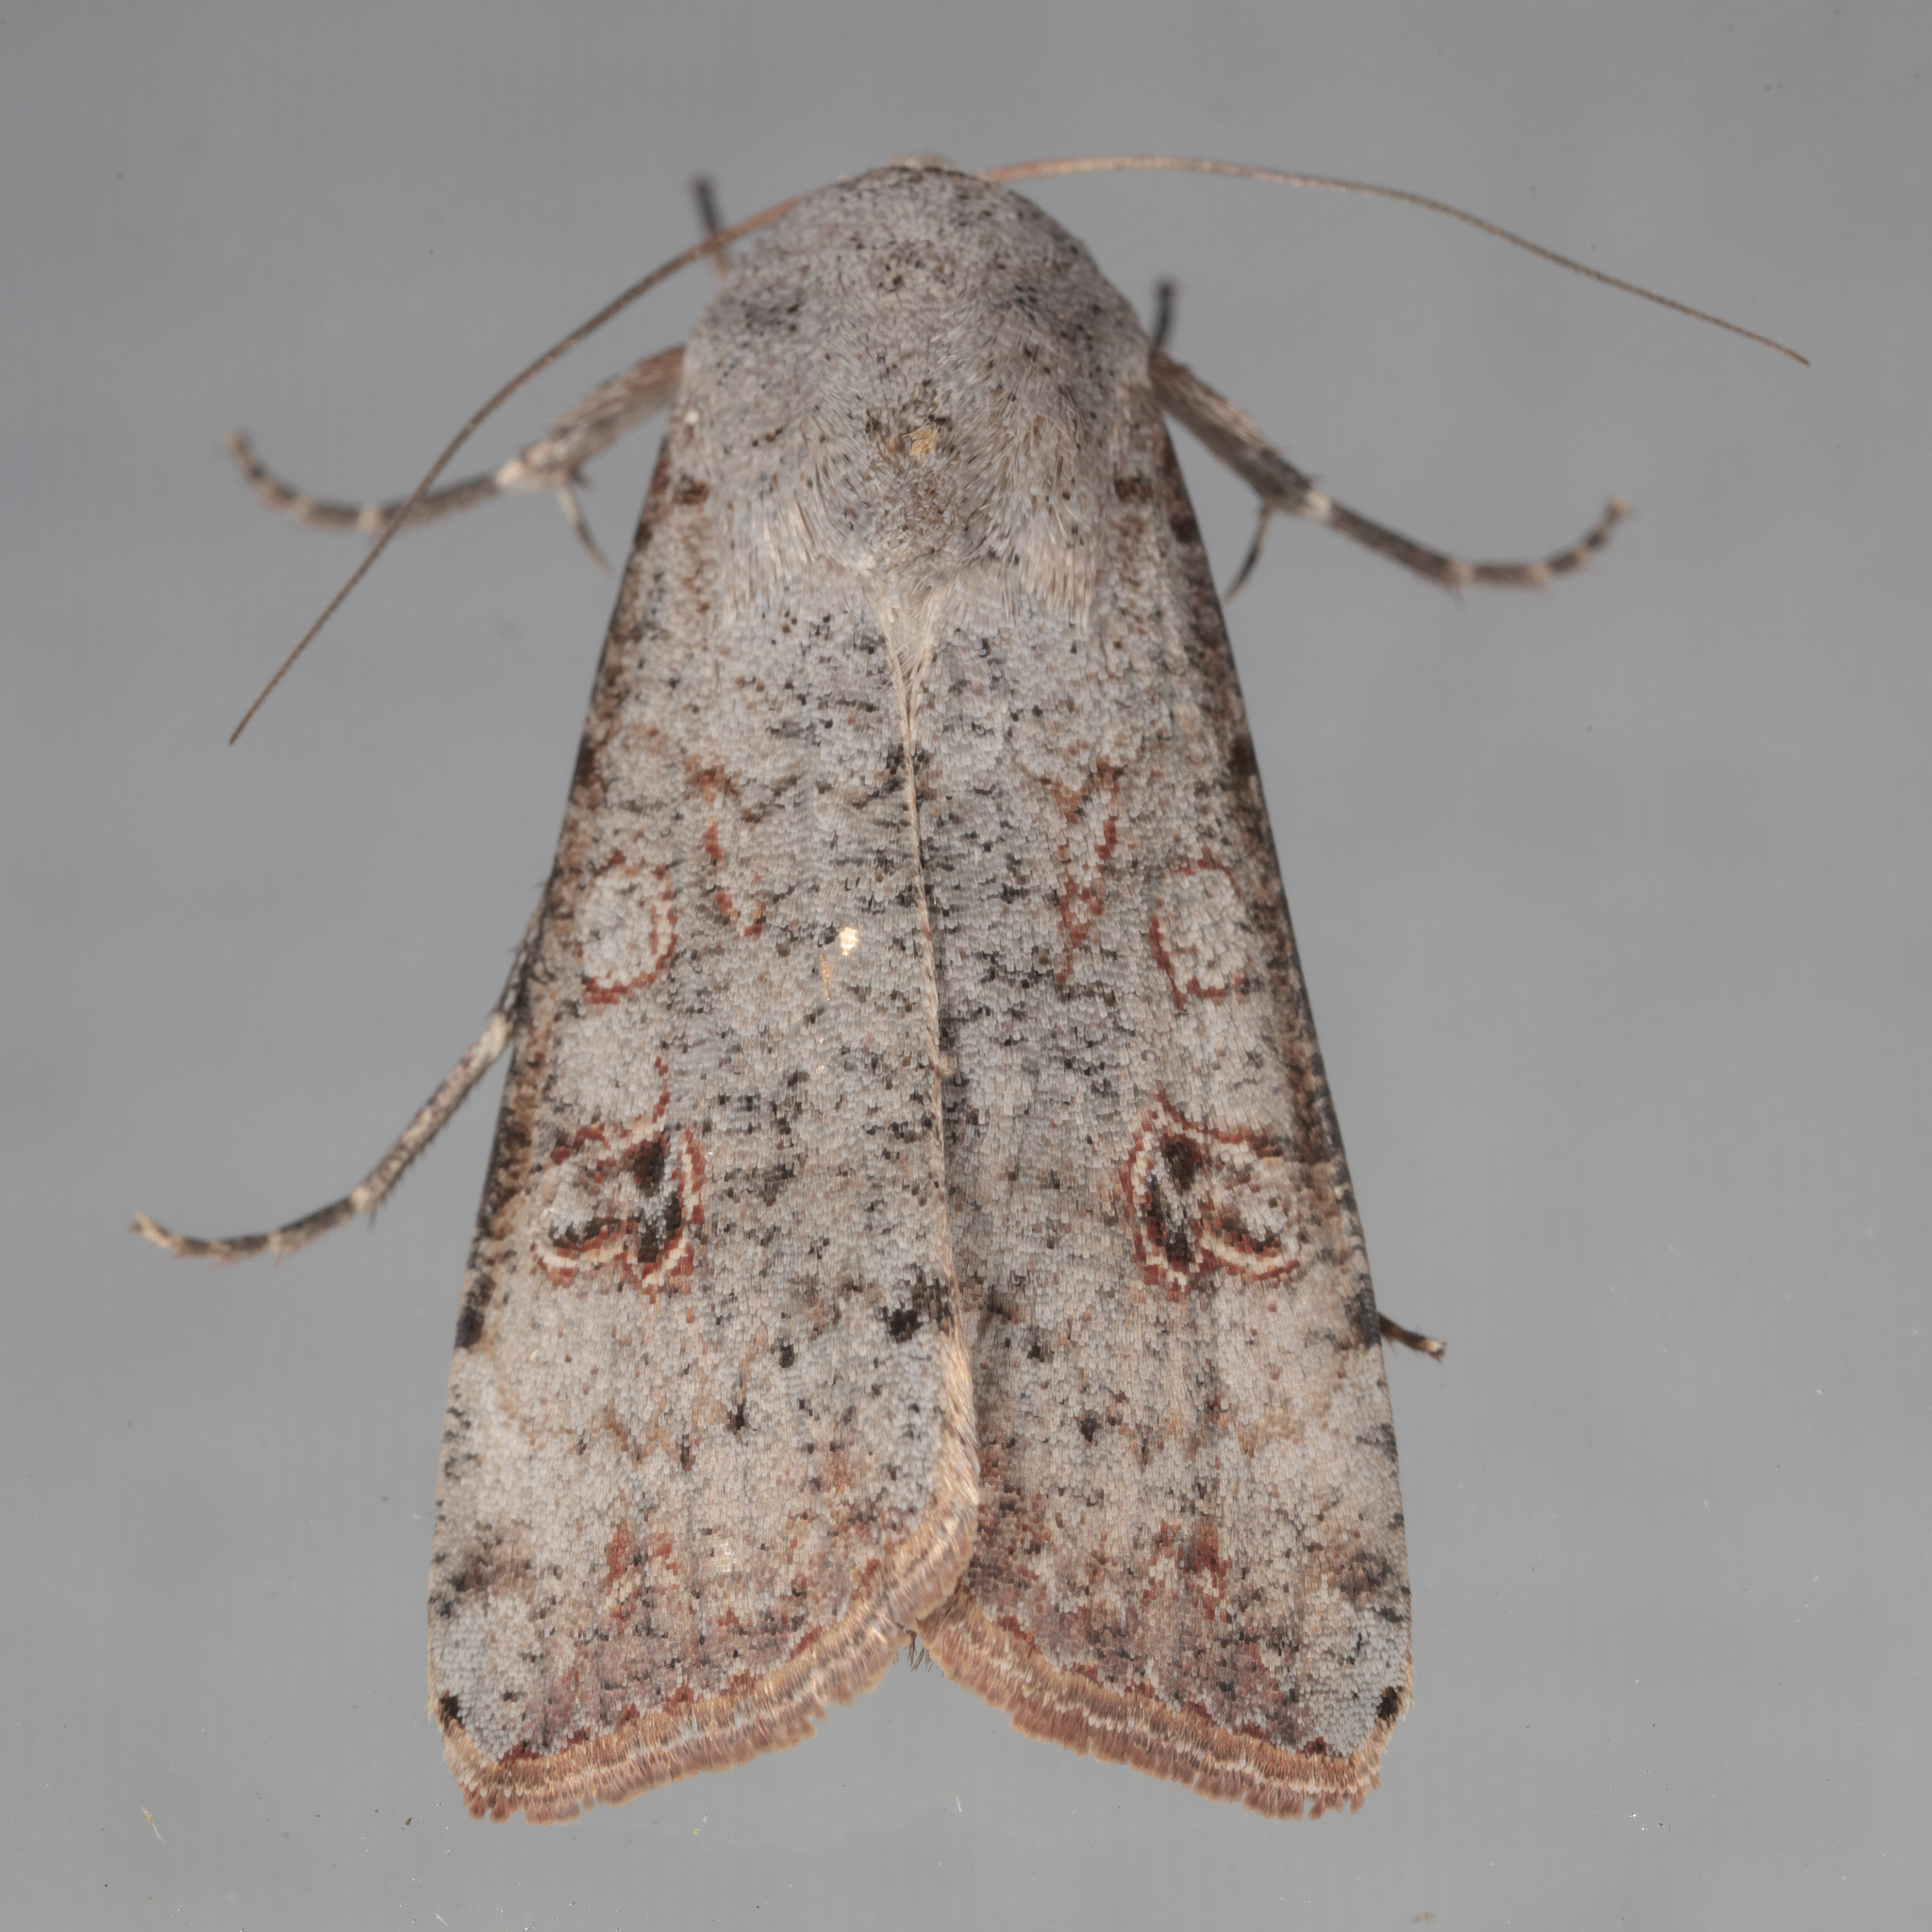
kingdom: Animalia
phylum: Arthropoda
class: Insecta
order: Lepidoptera
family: Noctuidae
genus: Anicla
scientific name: Anicla infecta
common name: Green cutworm
